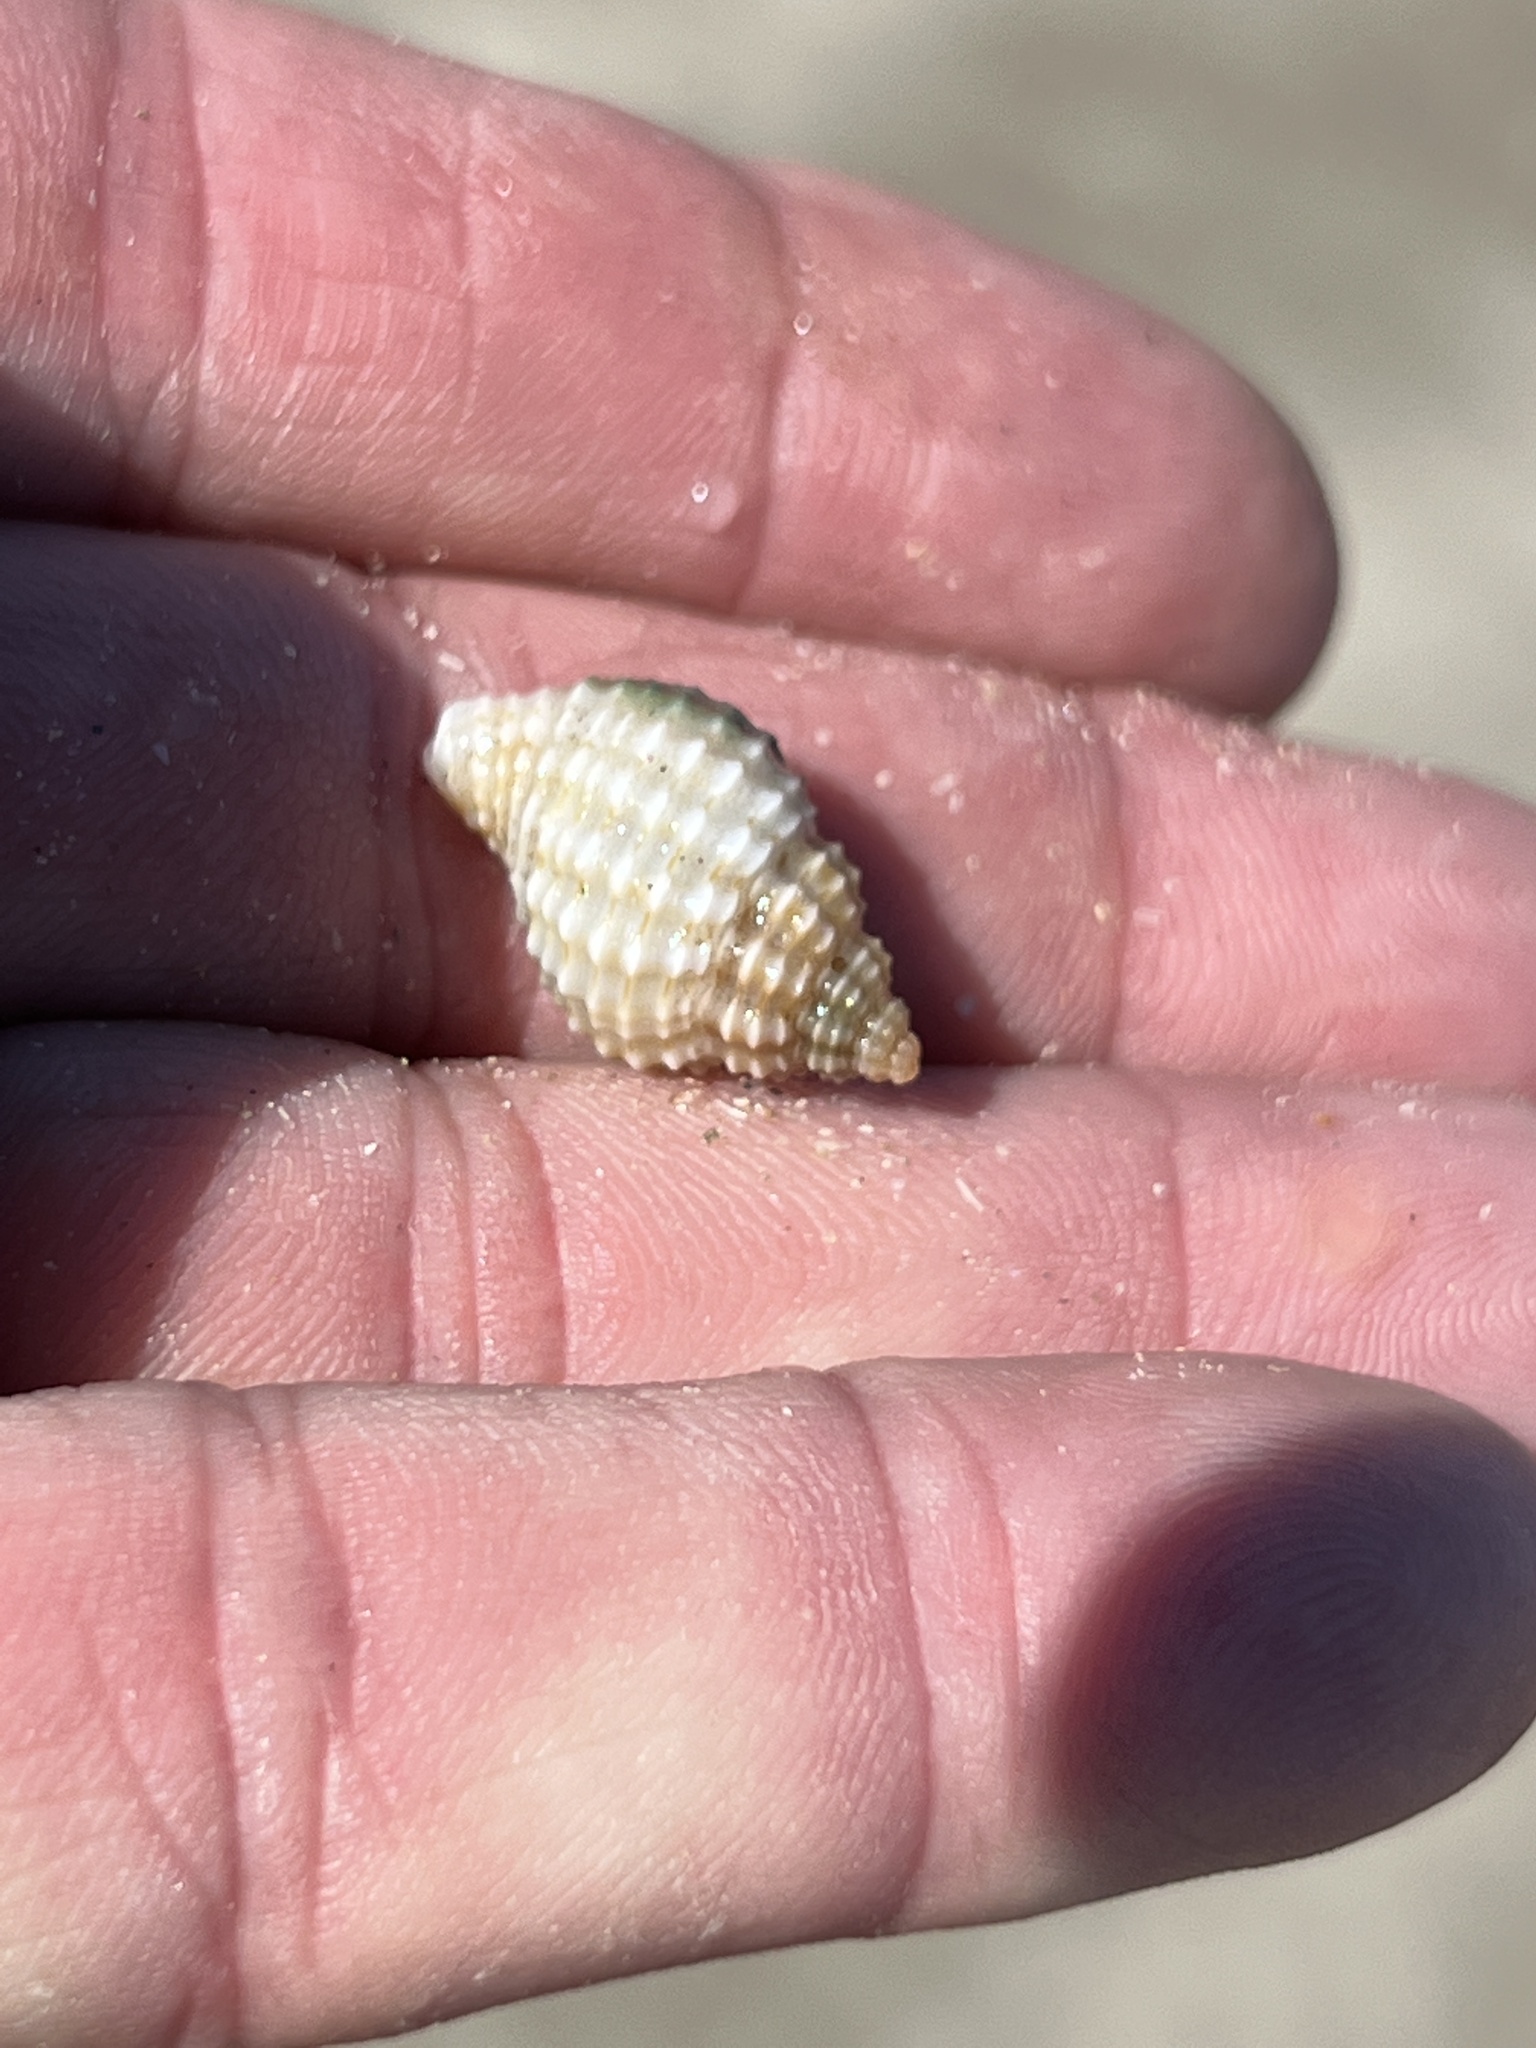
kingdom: Animalia
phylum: Mollusca
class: Gastropoda
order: Neogastropoda
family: Pisaniidae
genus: Solenosteira
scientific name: Solenosteira cancellaria
